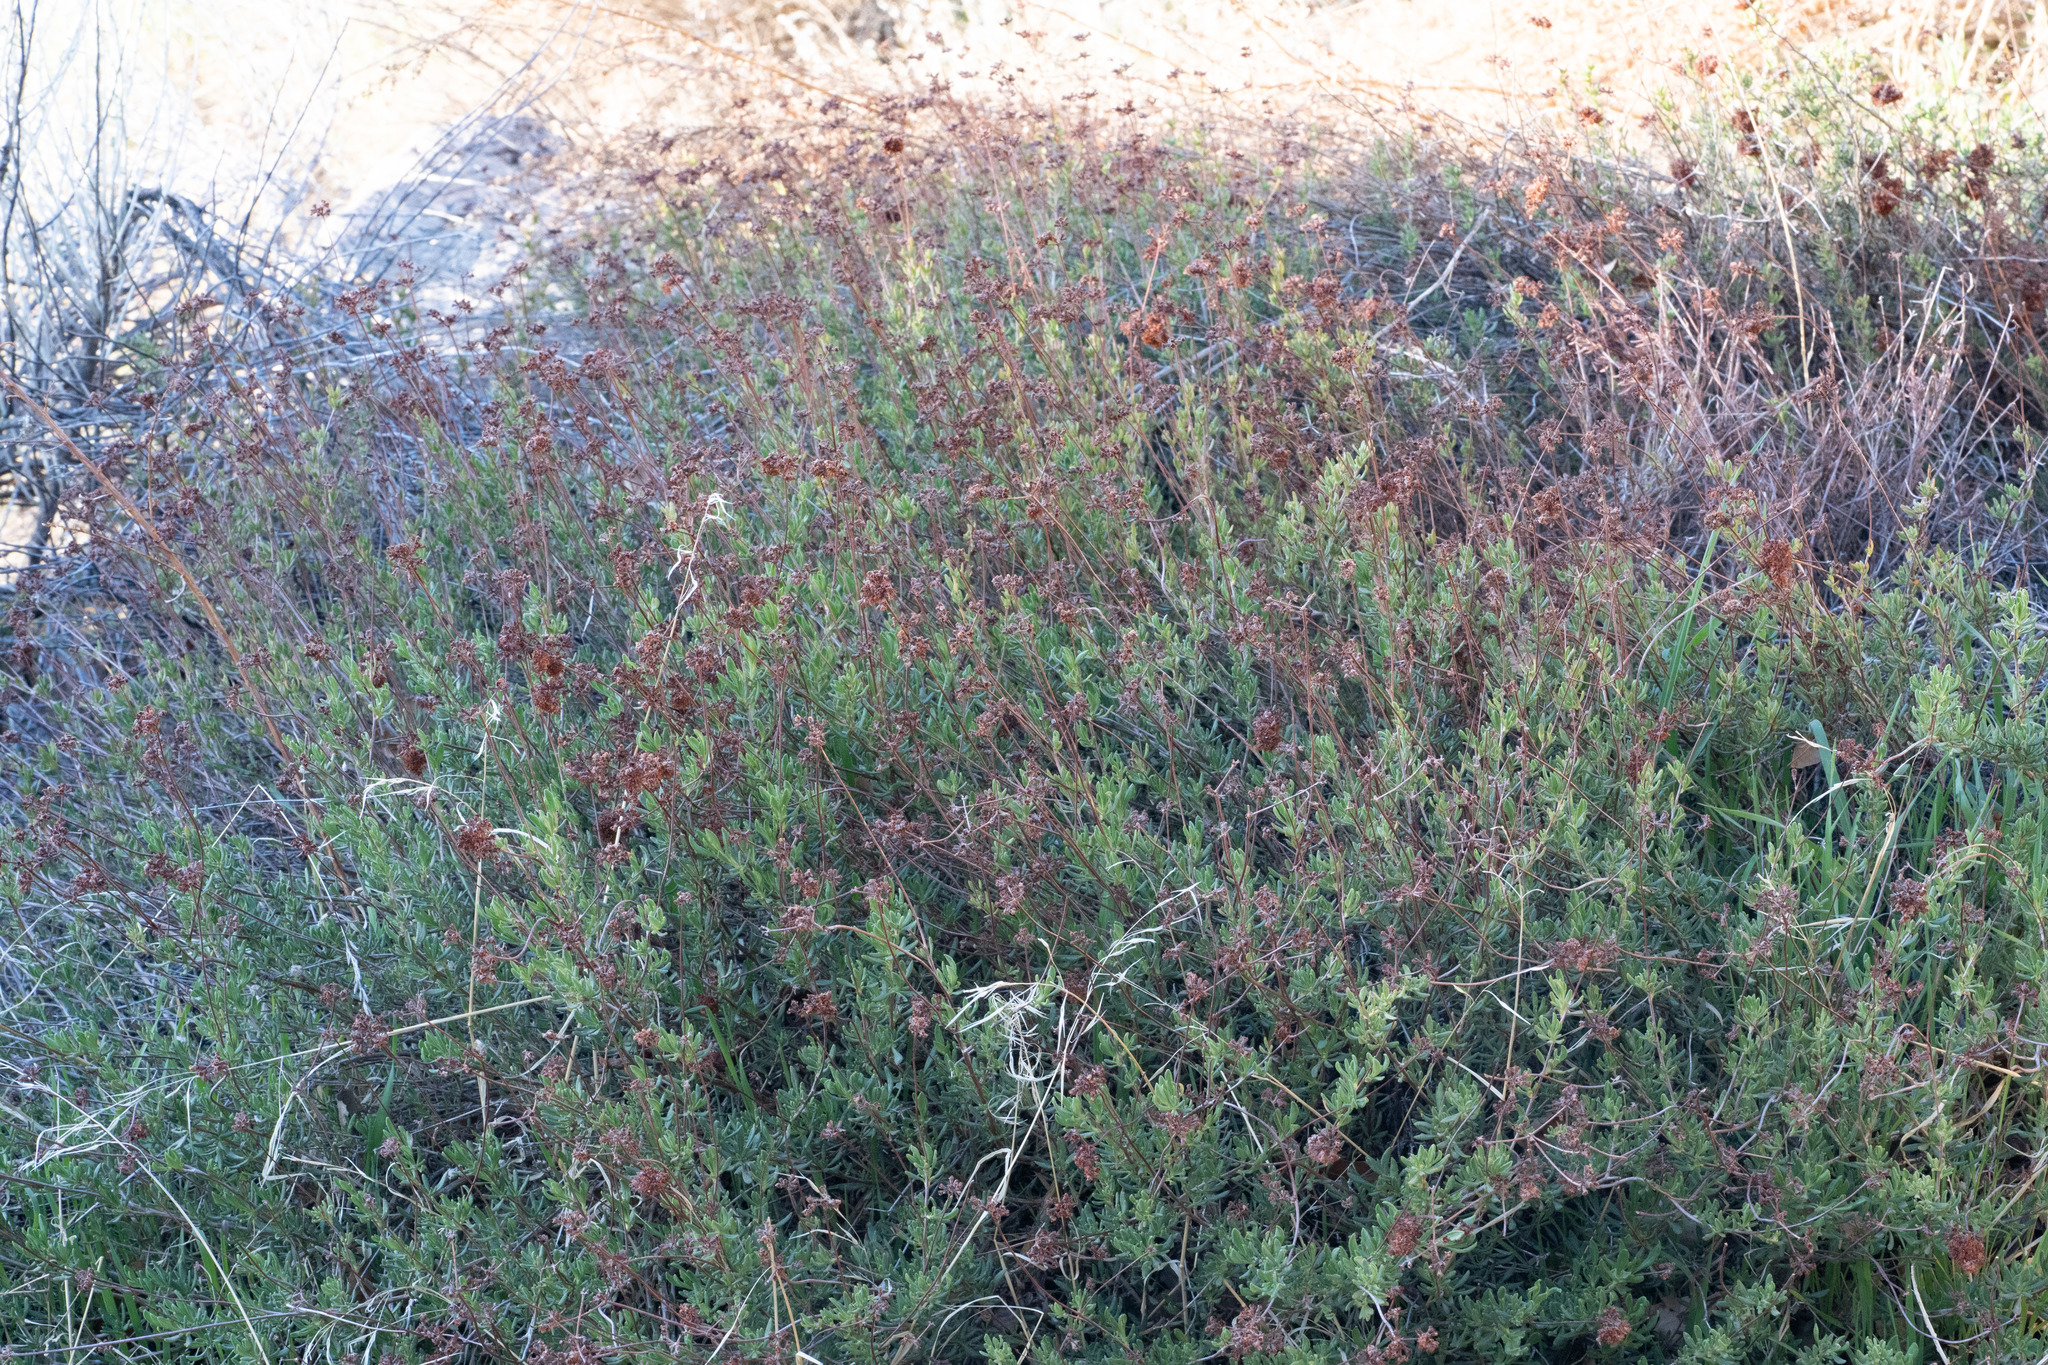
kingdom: Plantae
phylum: Tracheophyta
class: Magnoliopsida
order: Caryophyllales
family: Polygonaceae
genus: Eriogonum
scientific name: Eriogonum fasciculatum
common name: California wild buckwheat
